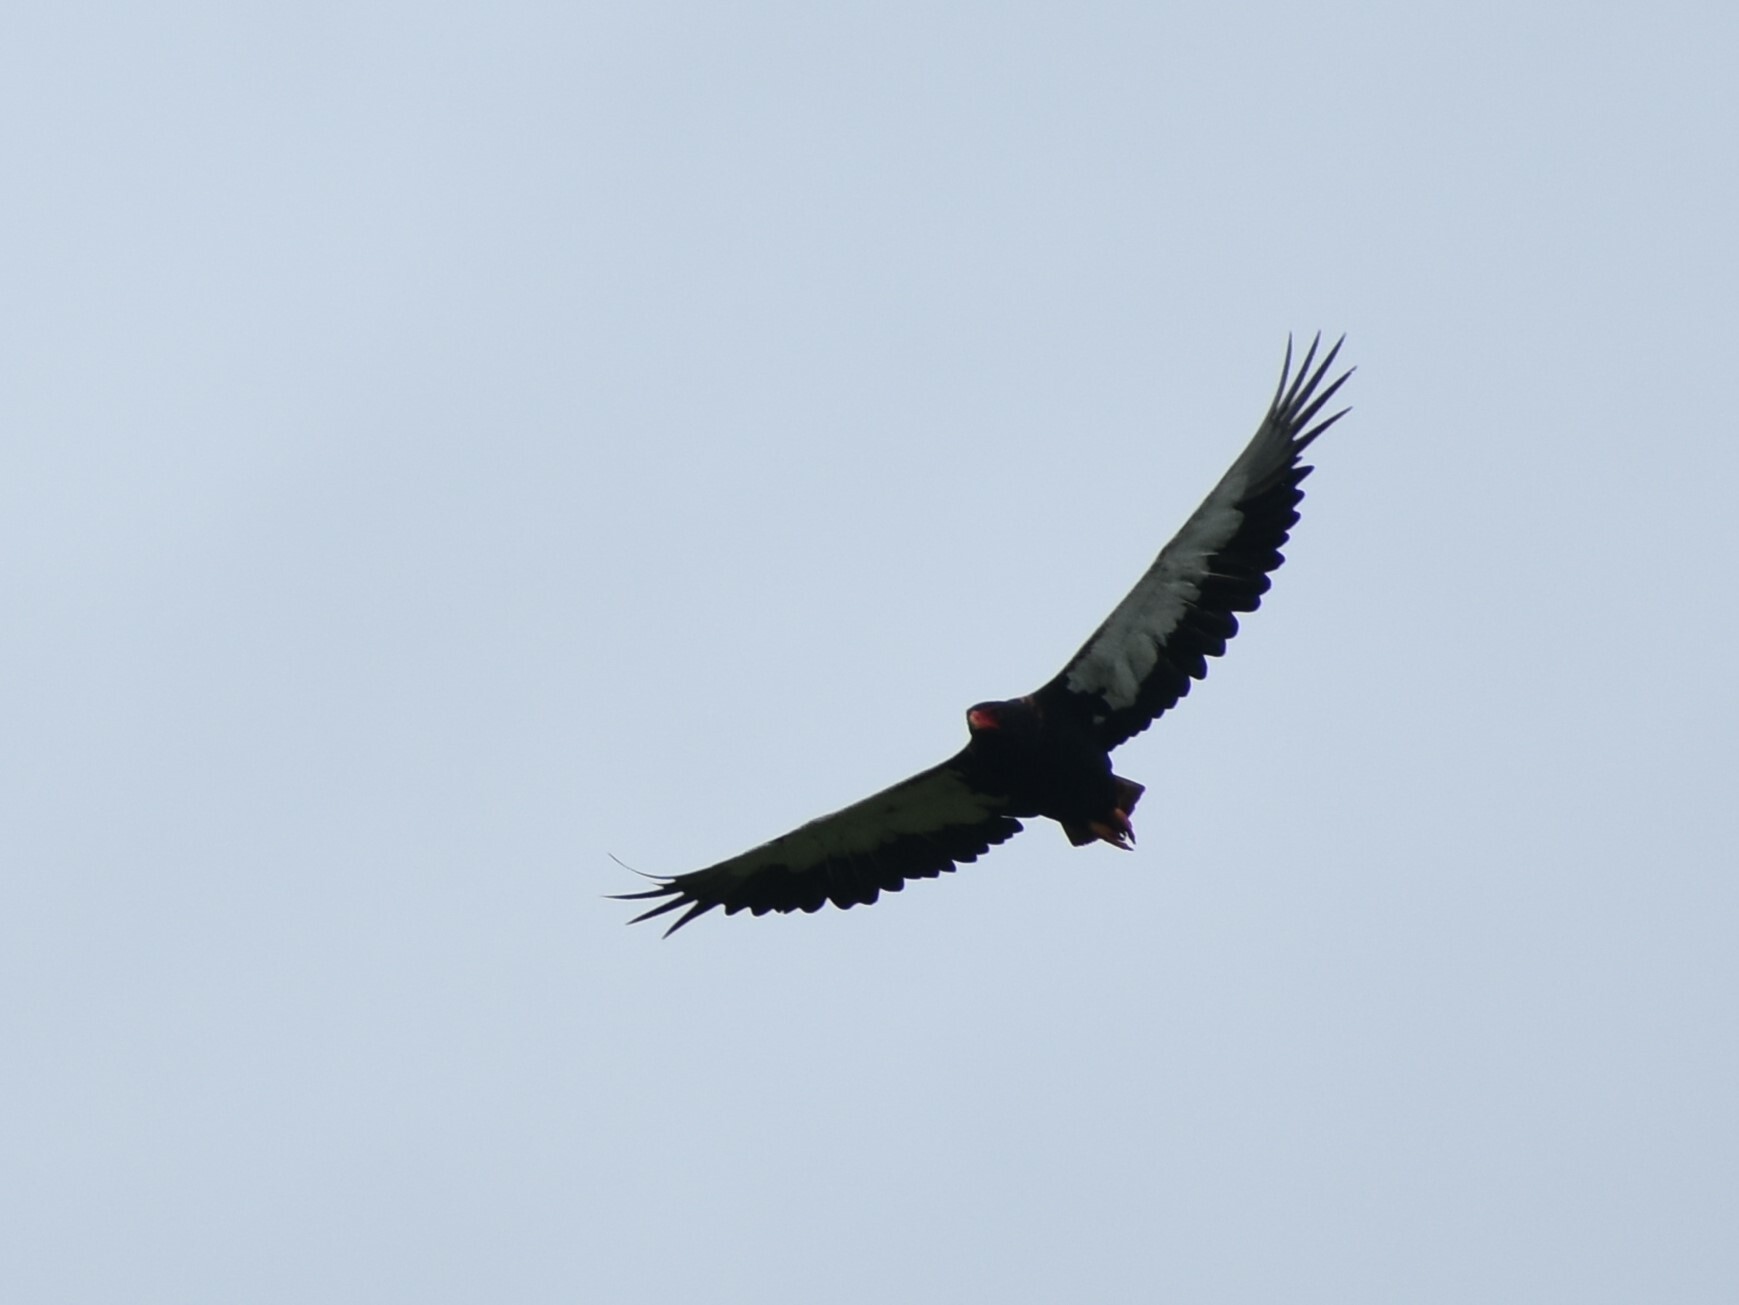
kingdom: Animalia
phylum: Chordata
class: Aves
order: Accipitriformes
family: Accipitridae
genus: Terathopius
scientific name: Terathopius ecaudatus
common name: Bateleur
